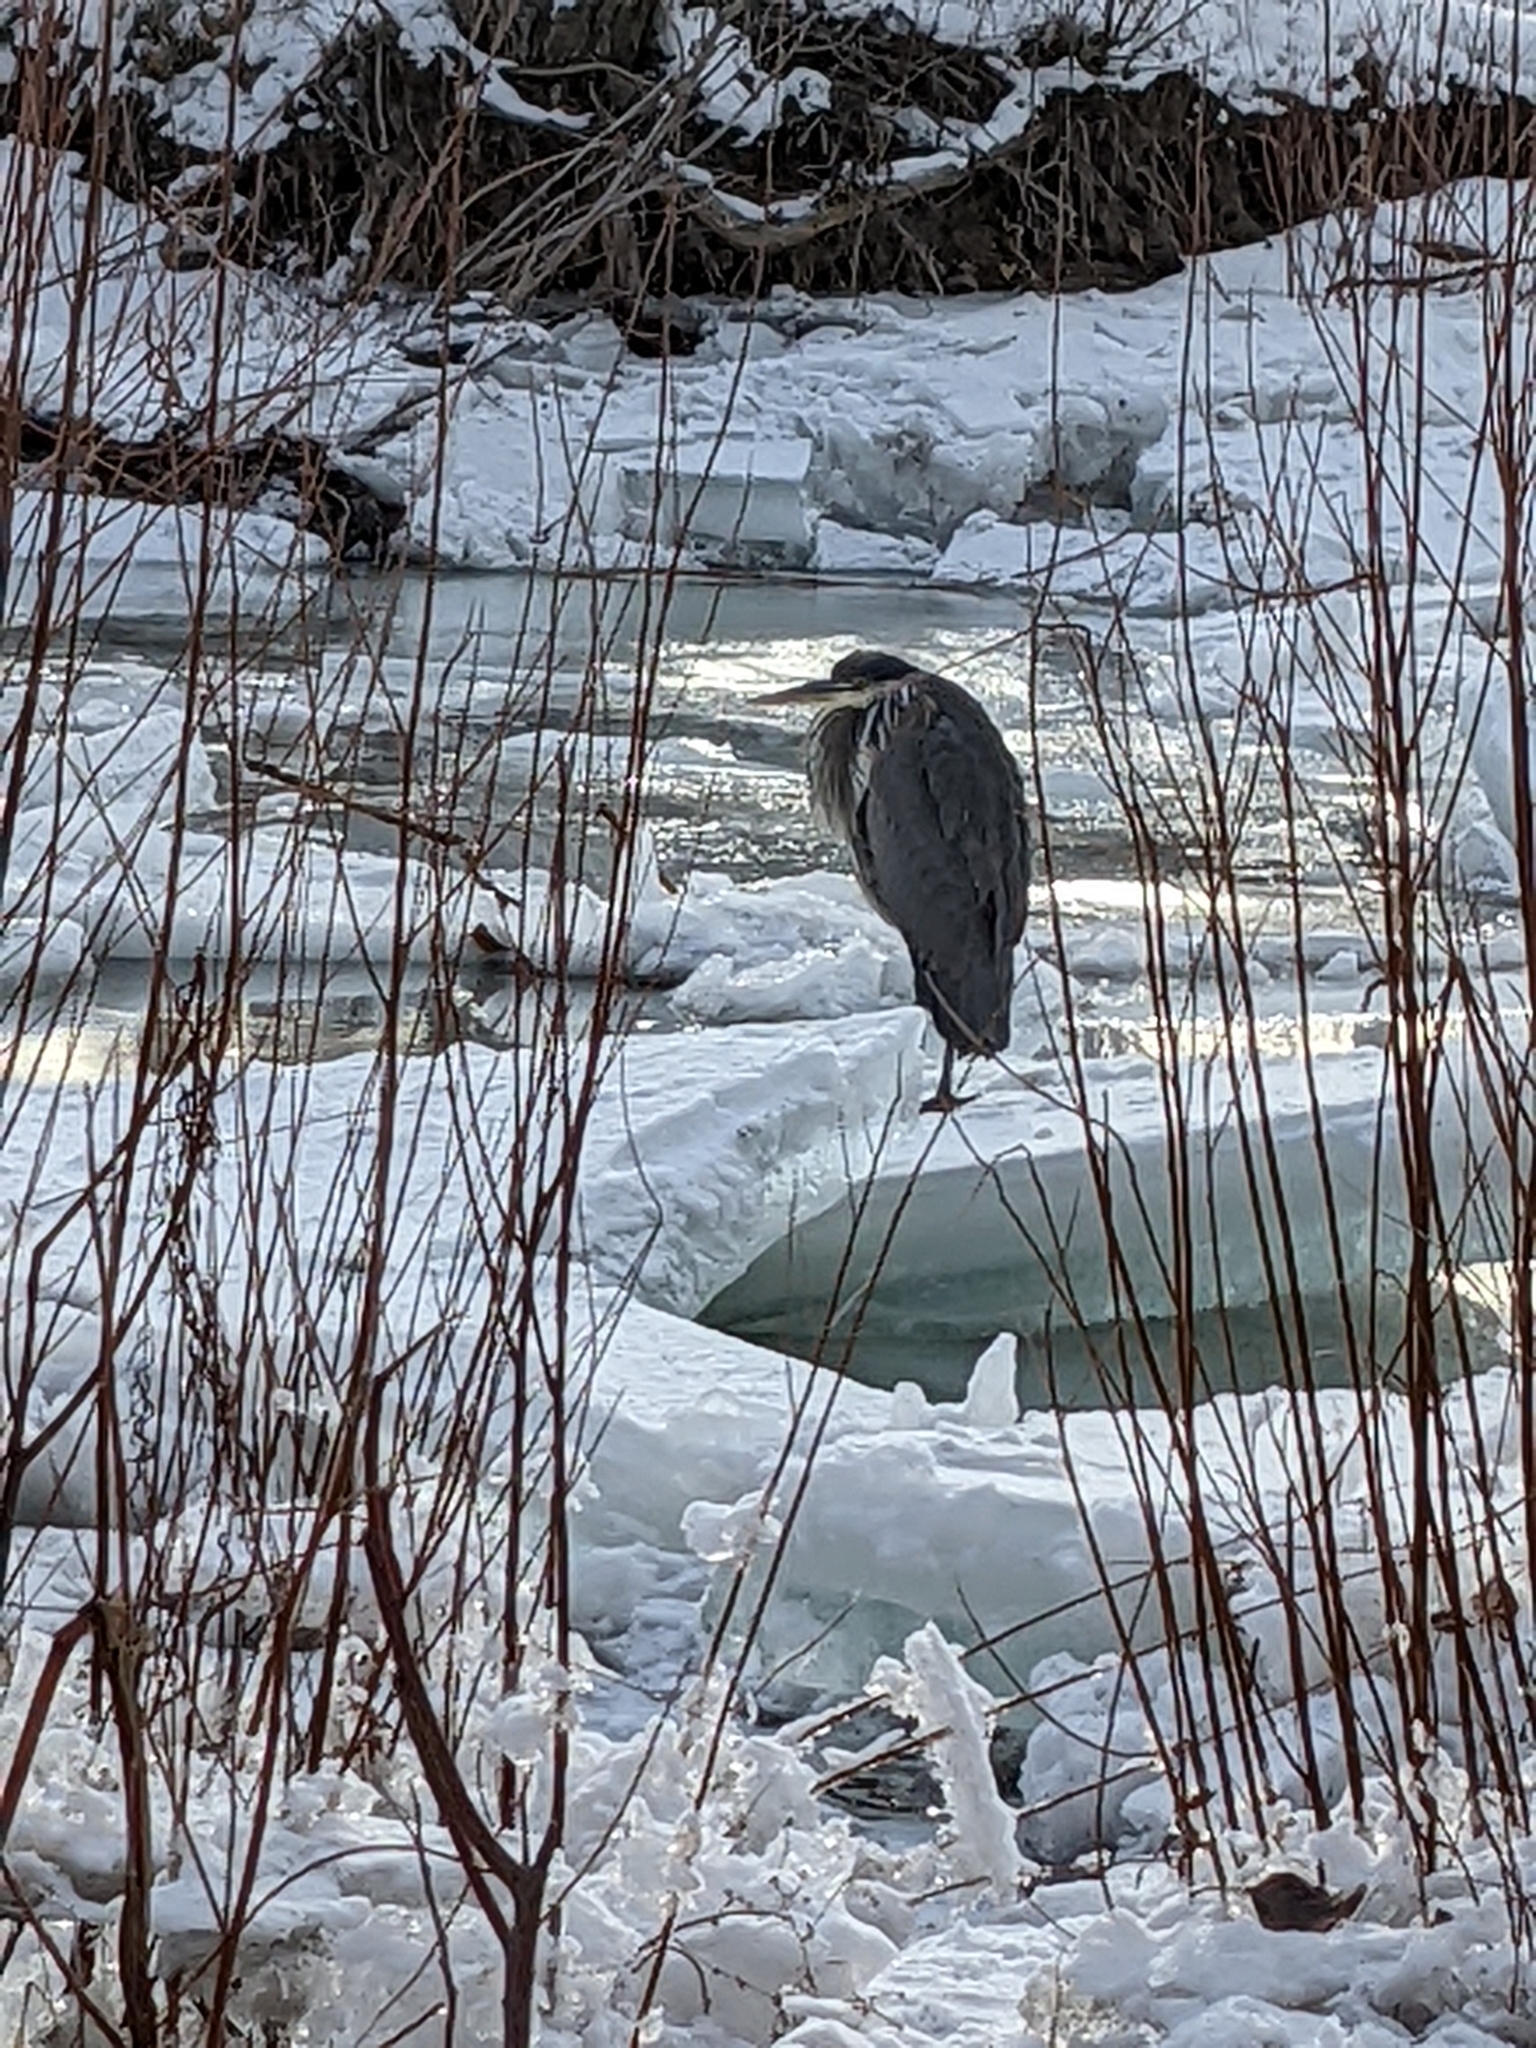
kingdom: Animalia
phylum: Chordata
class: Aves
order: Pelecaniformes
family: Ardeidae
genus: Ardea
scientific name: Ardea herodias
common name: Great blue heron
